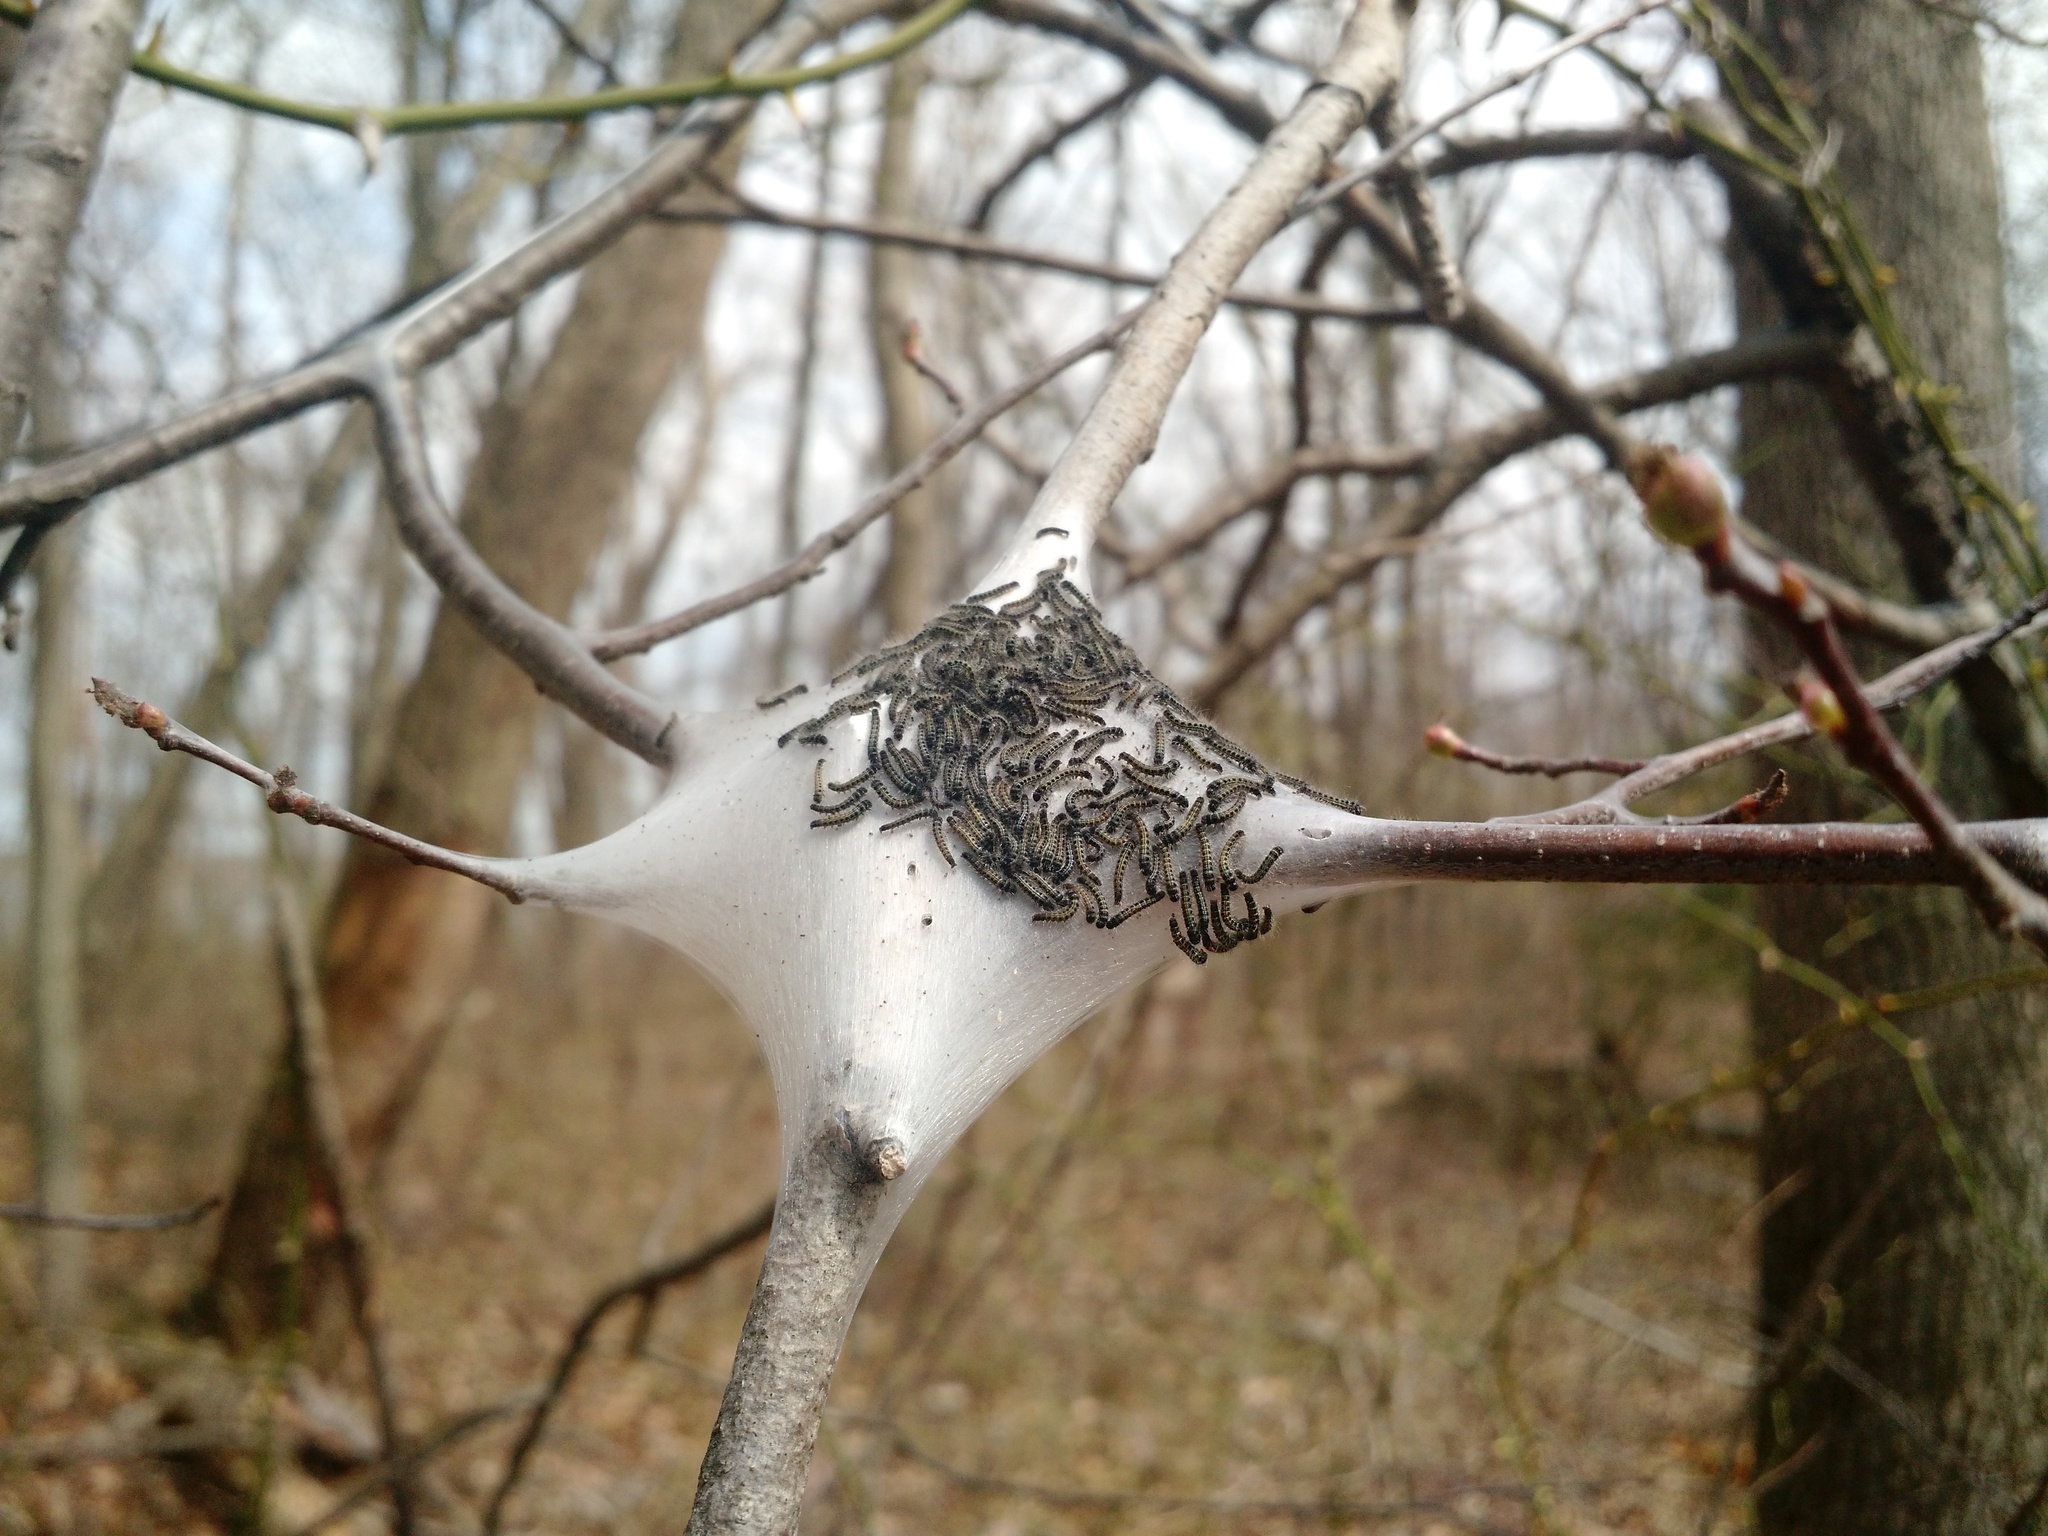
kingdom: Animalia
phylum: Arthropoda
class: Insecta
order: Lepidoptera
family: Lasiocampidae
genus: Malacosoma
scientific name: Malacosoma americana
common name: Eastern tent caterpillar moth
